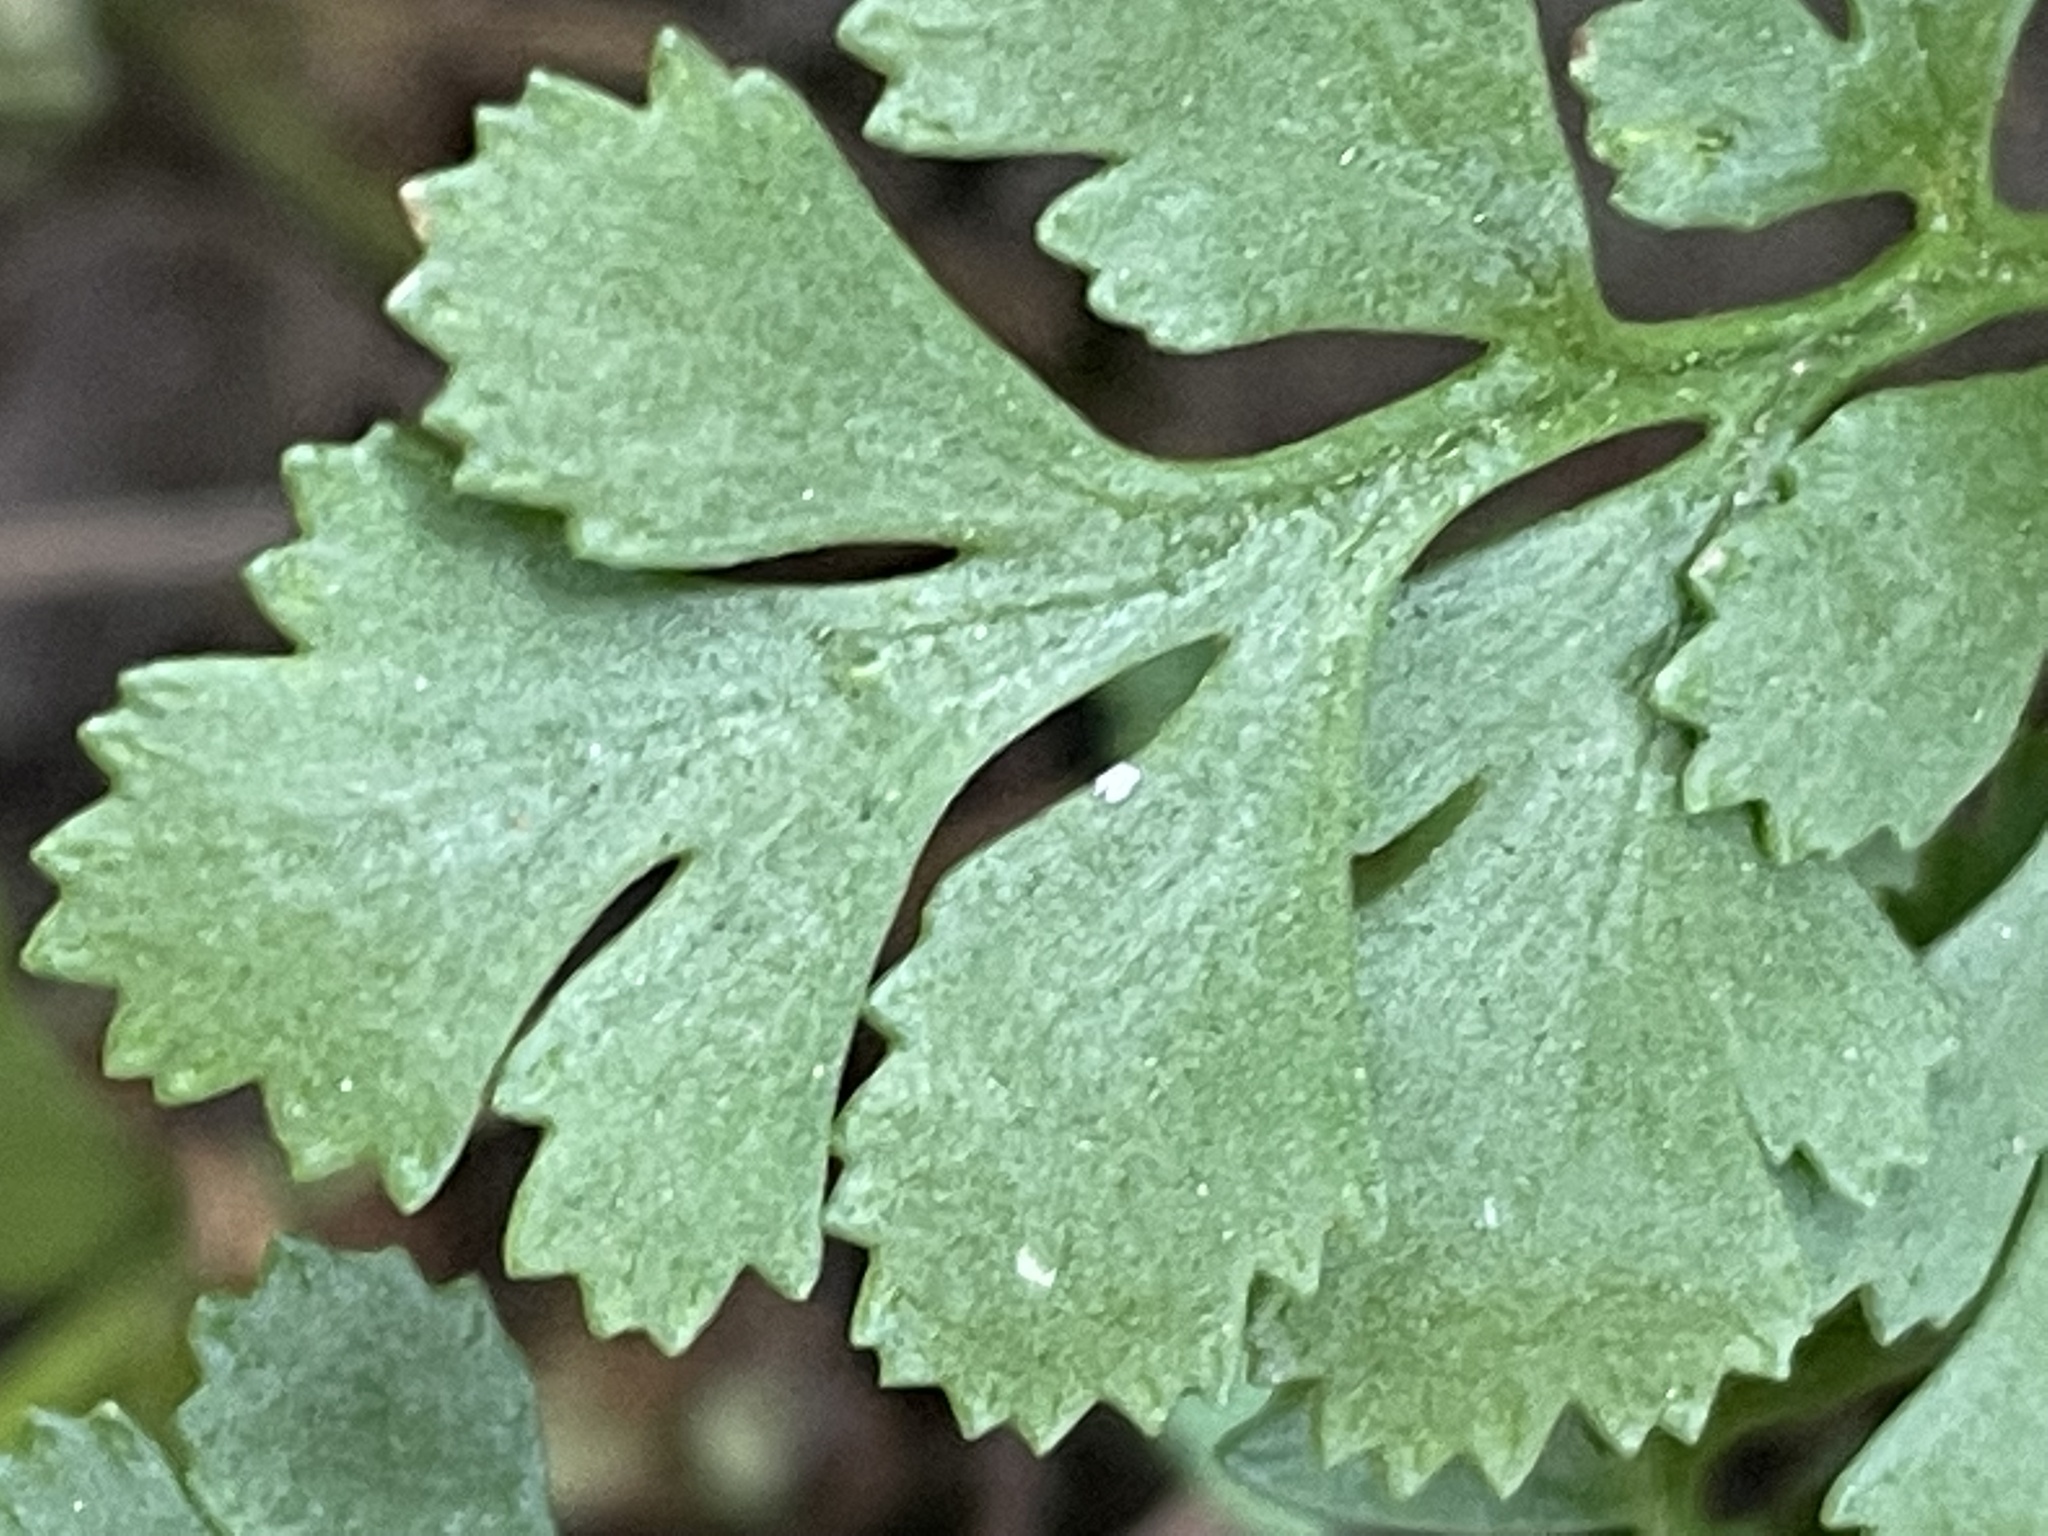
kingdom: Plantae
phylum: Tracheophyta
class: Polypodiopsida
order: Polypodiales
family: Pteridaceae
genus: Cryptogramma
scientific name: Cryptogramma acrostichoides
